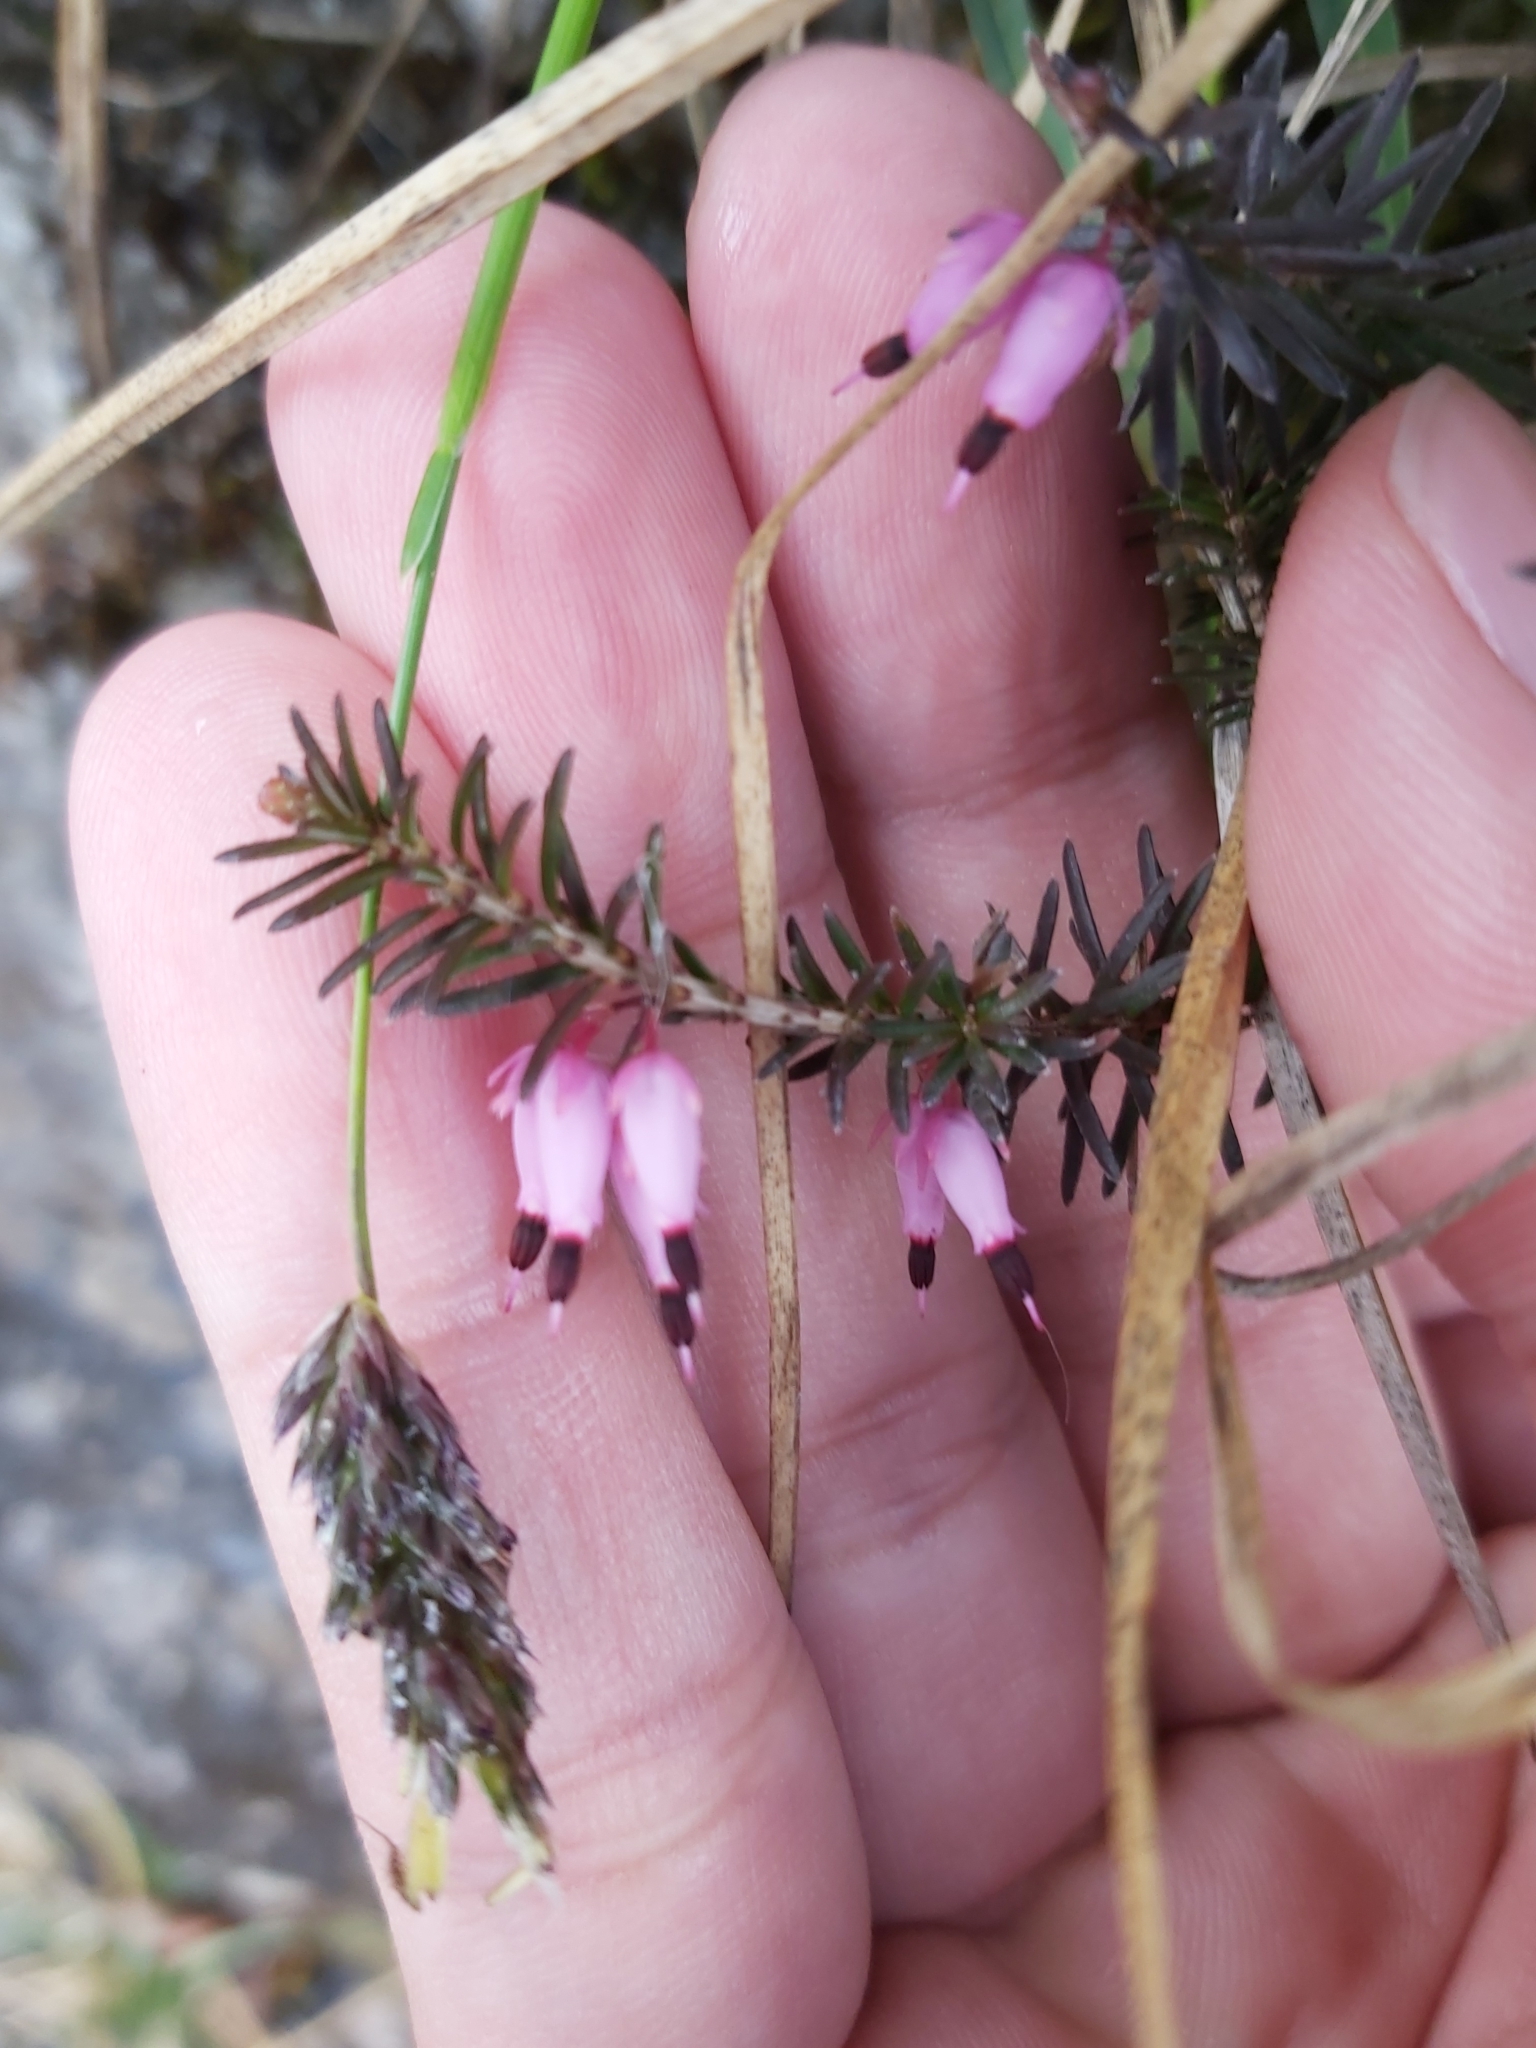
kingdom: Plantae
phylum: Tracheophyta
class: Magnoliopsida
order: Ericales
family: Ericaceae
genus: Erica
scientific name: Erica carnea
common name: Winter heath
